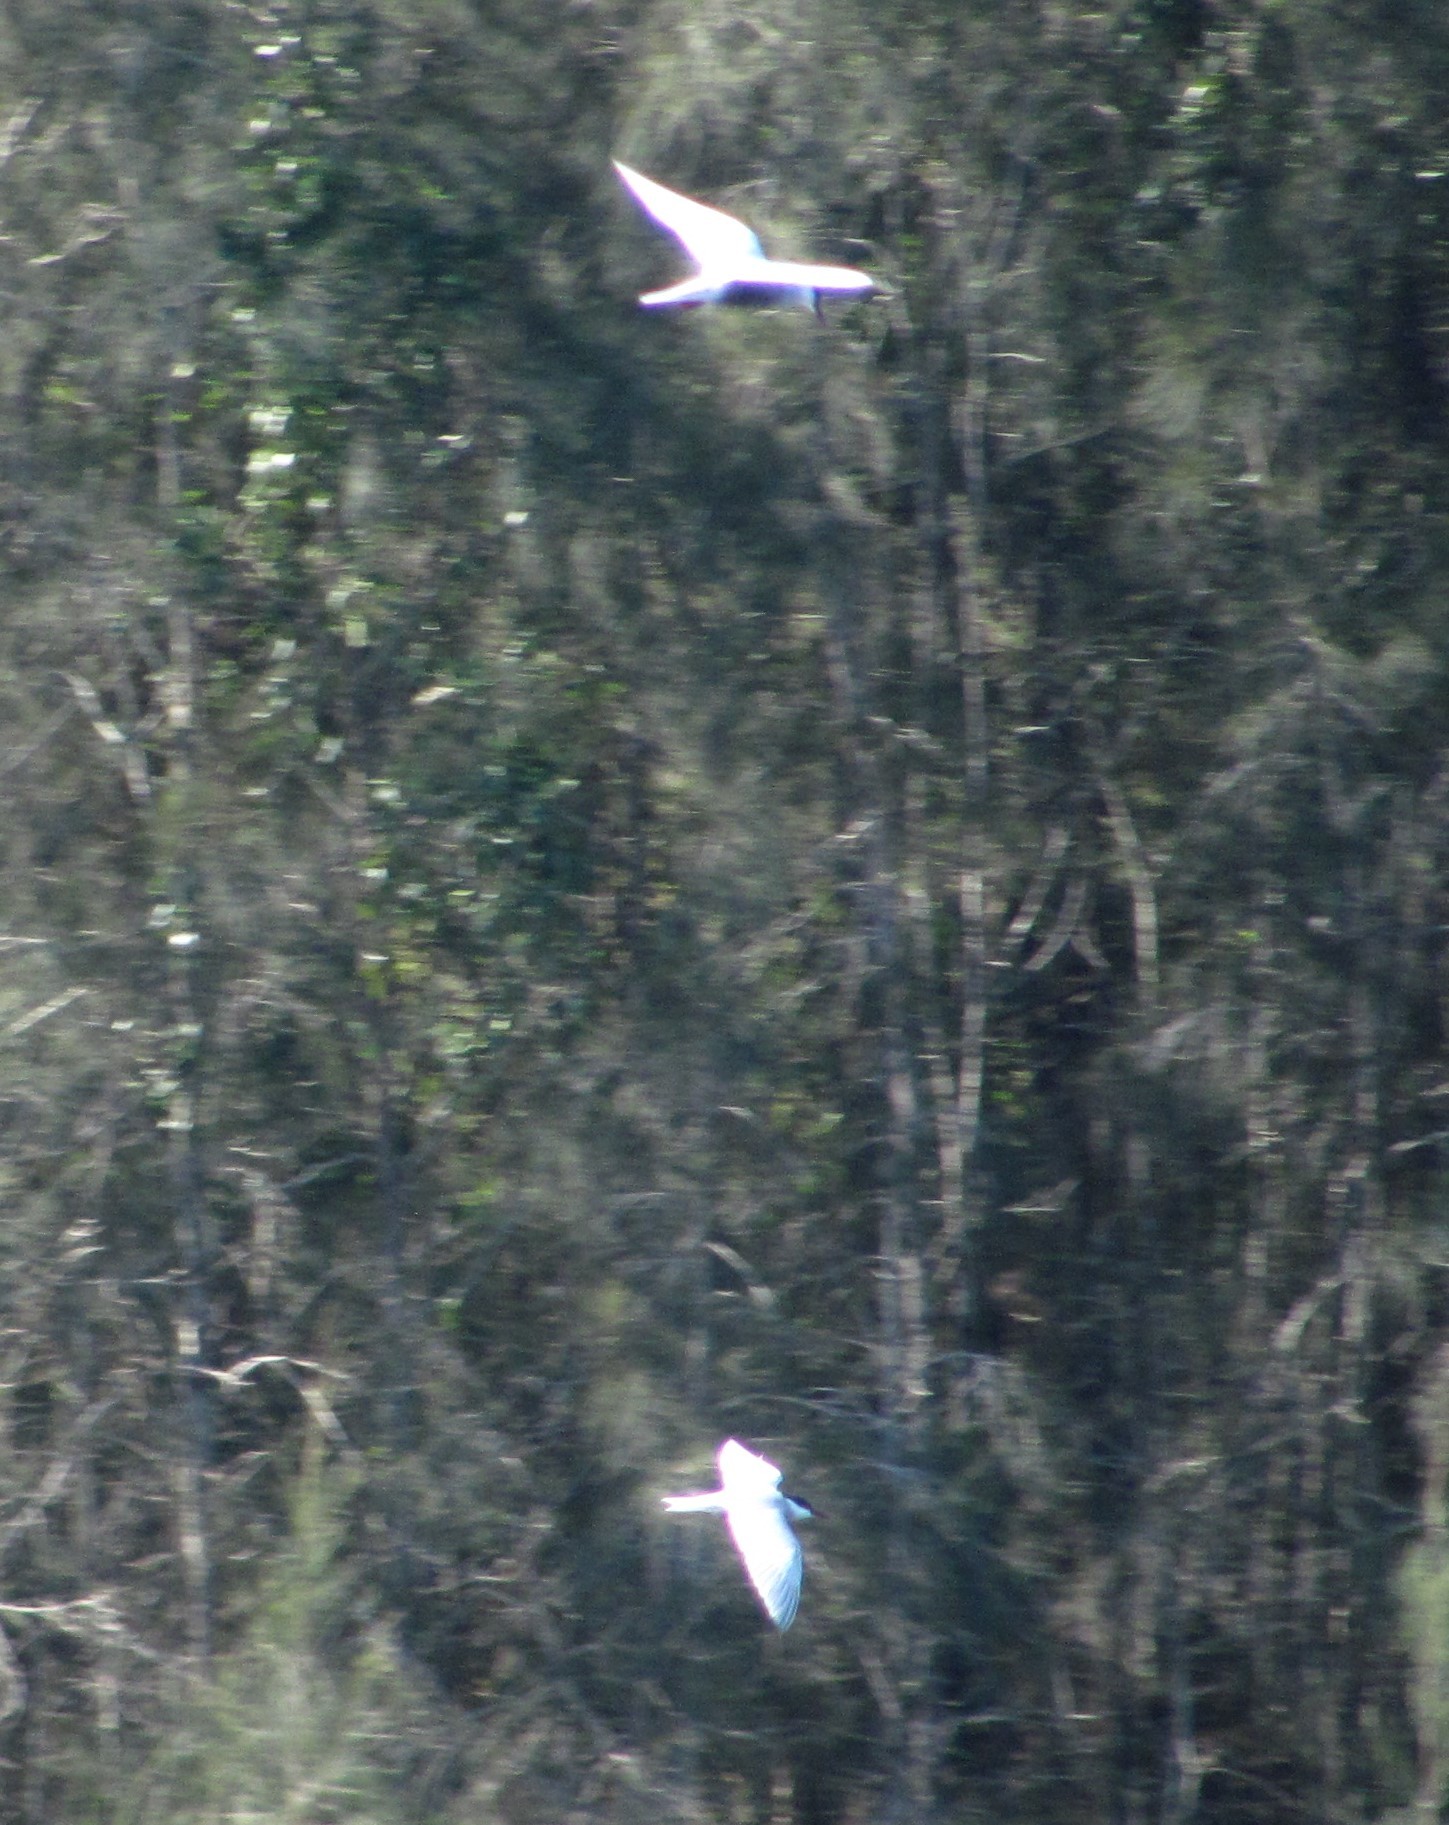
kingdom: Animalia
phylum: Chordata
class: Aves
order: Charadriiformes
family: Laridae
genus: Chlidonias
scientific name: Chlidonias hybrida
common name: Whiskered tern
